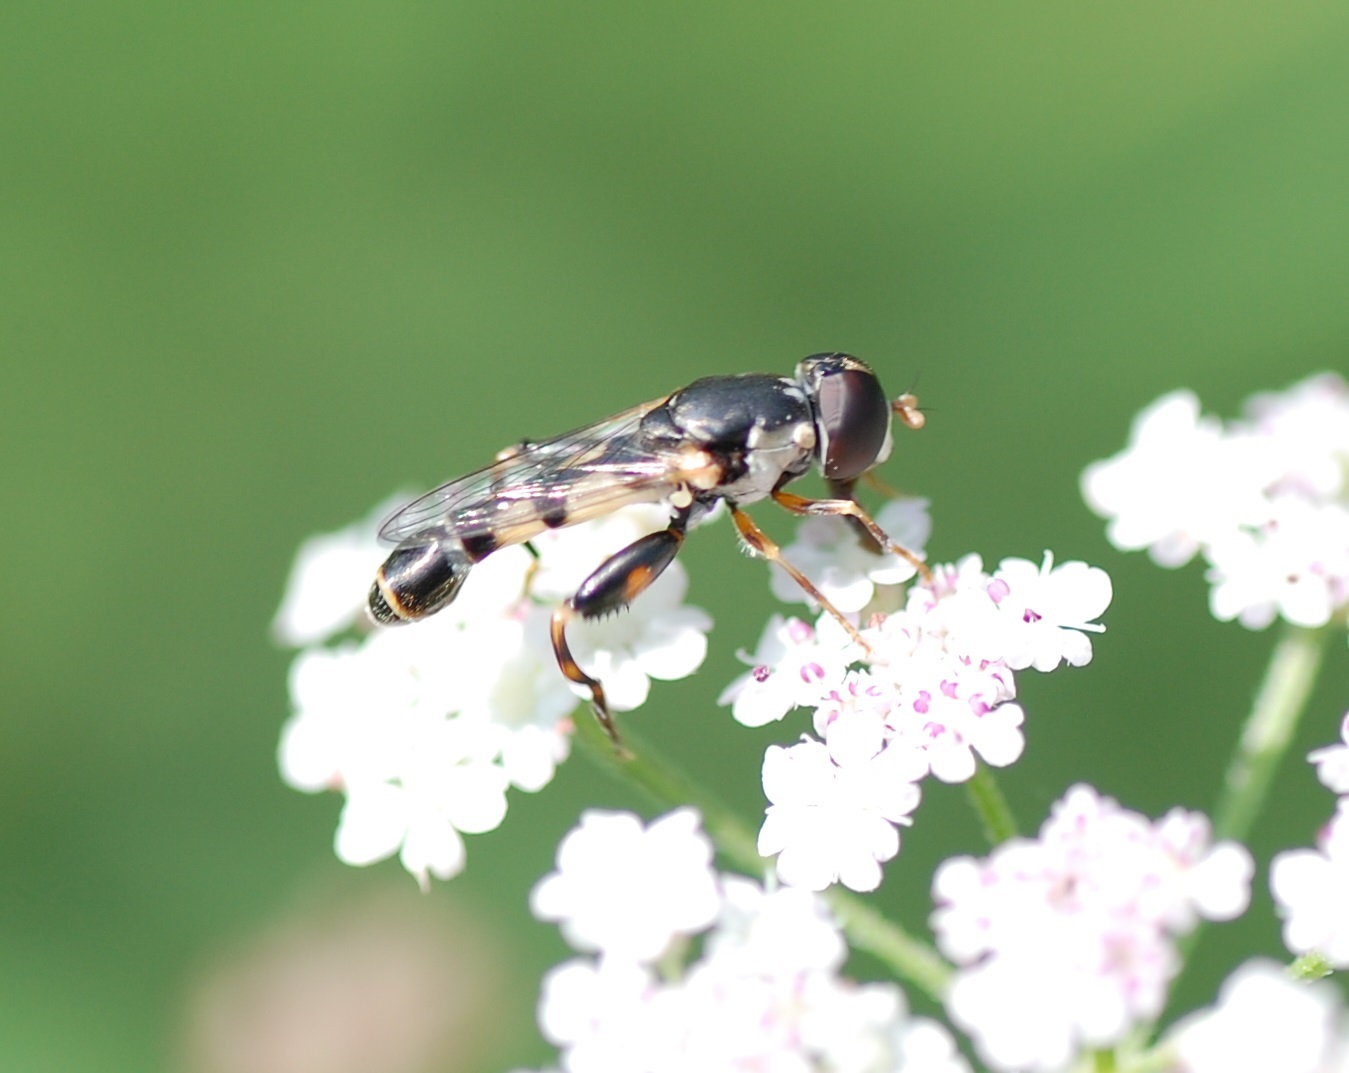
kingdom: Animalia
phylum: Arthropoda
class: Insecta
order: Diptera
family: Syrphidae
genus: Syritta
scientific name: Syritta pipiens
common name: Hover fly
